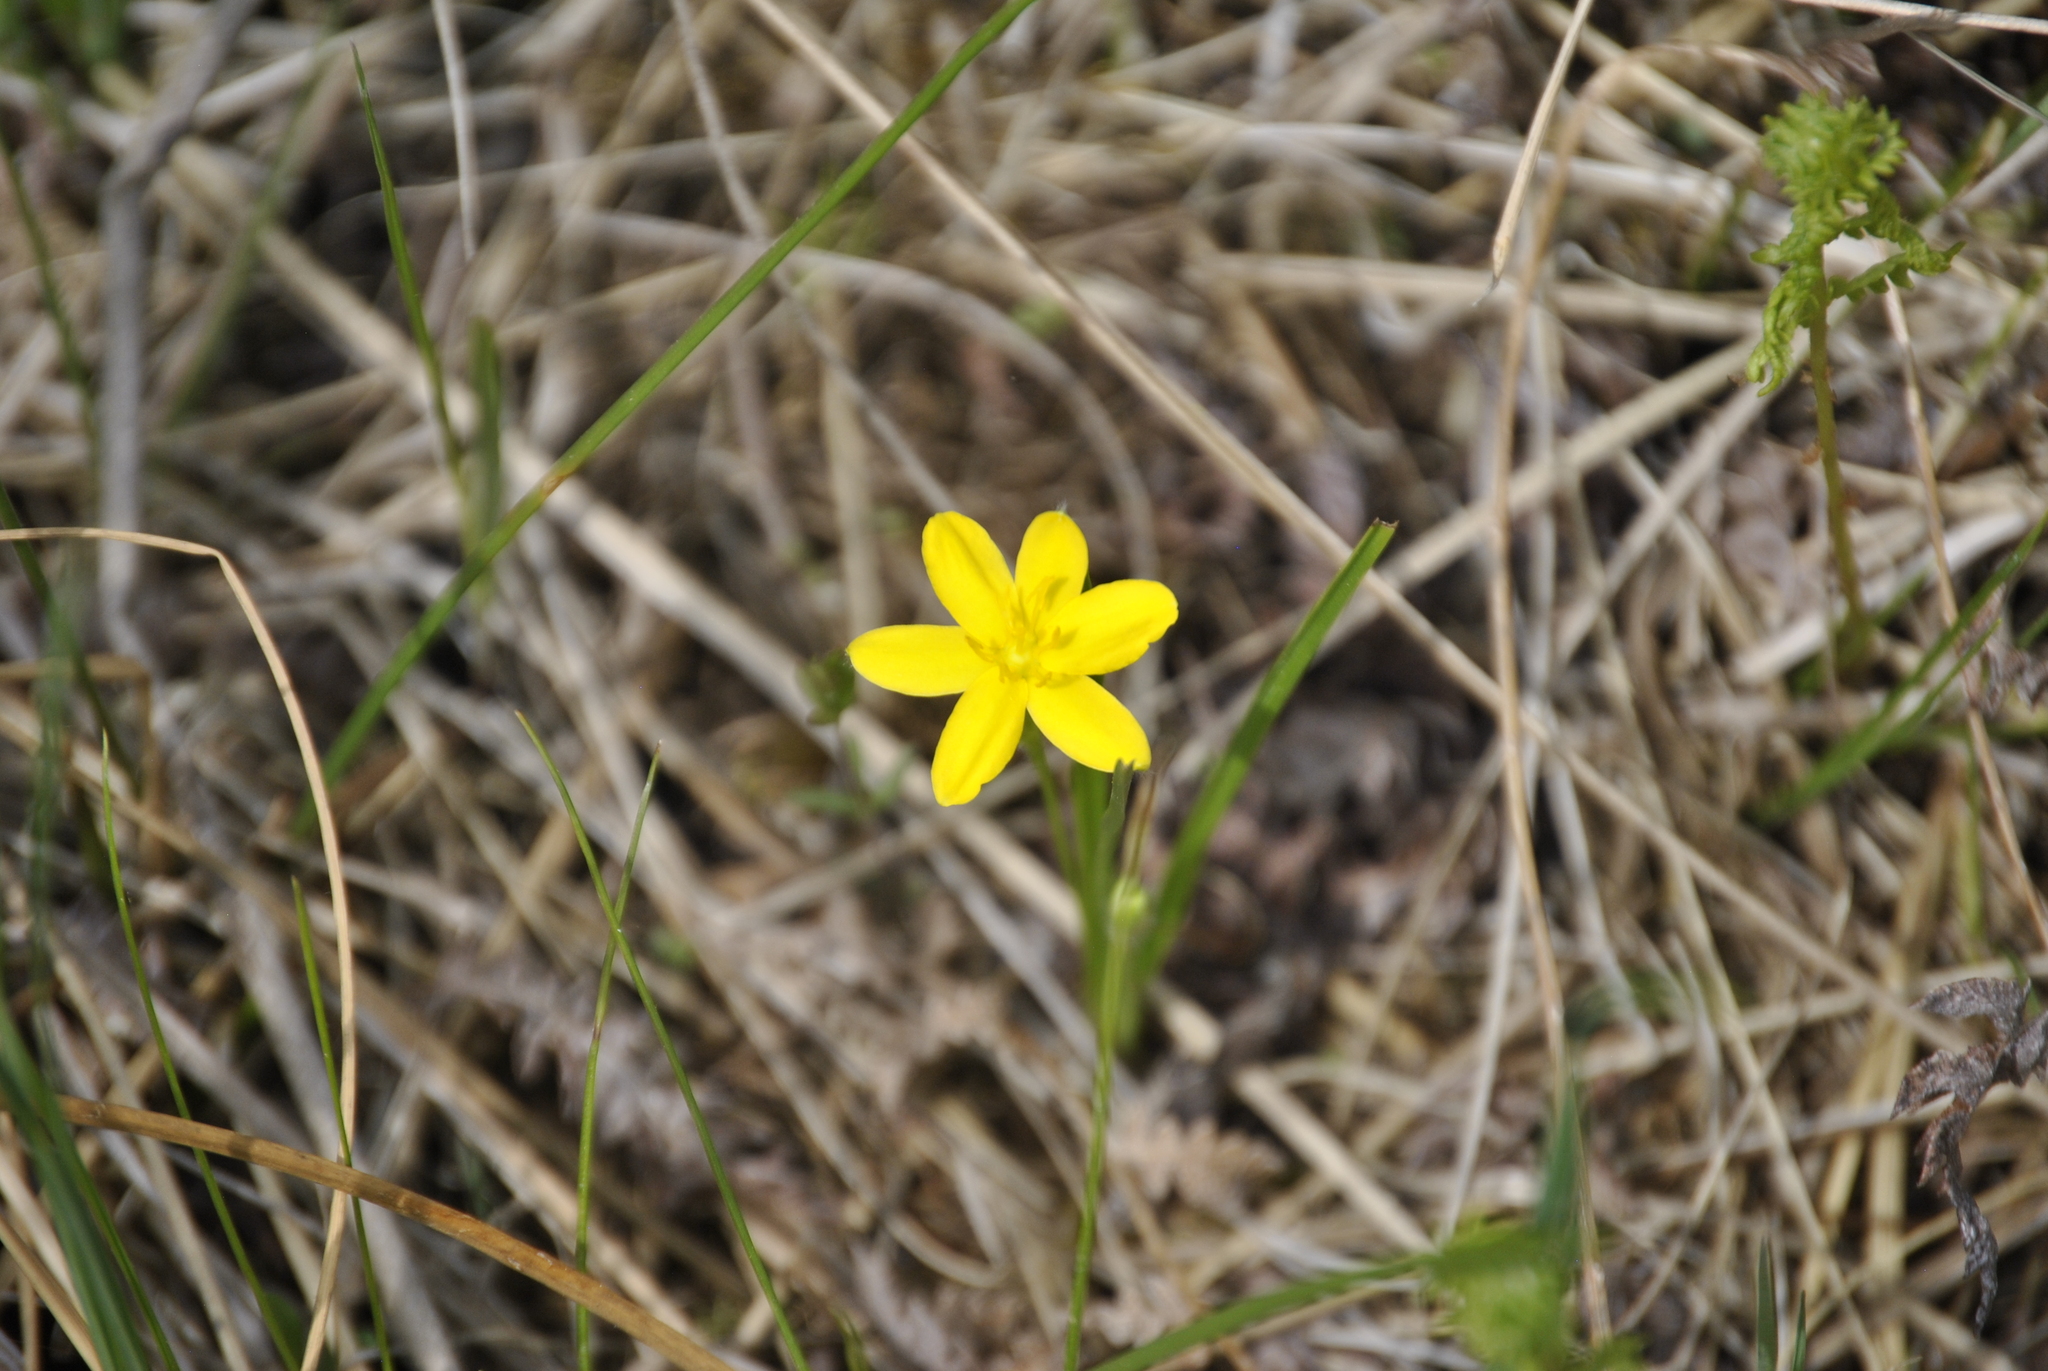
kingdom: Plantae
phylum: Tracheophyta
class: Liliopsida
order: Asparagales
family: Hypoxidaceae
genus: Hypoxis
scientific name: Hypoxis hirsuta
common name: Common goldstar
